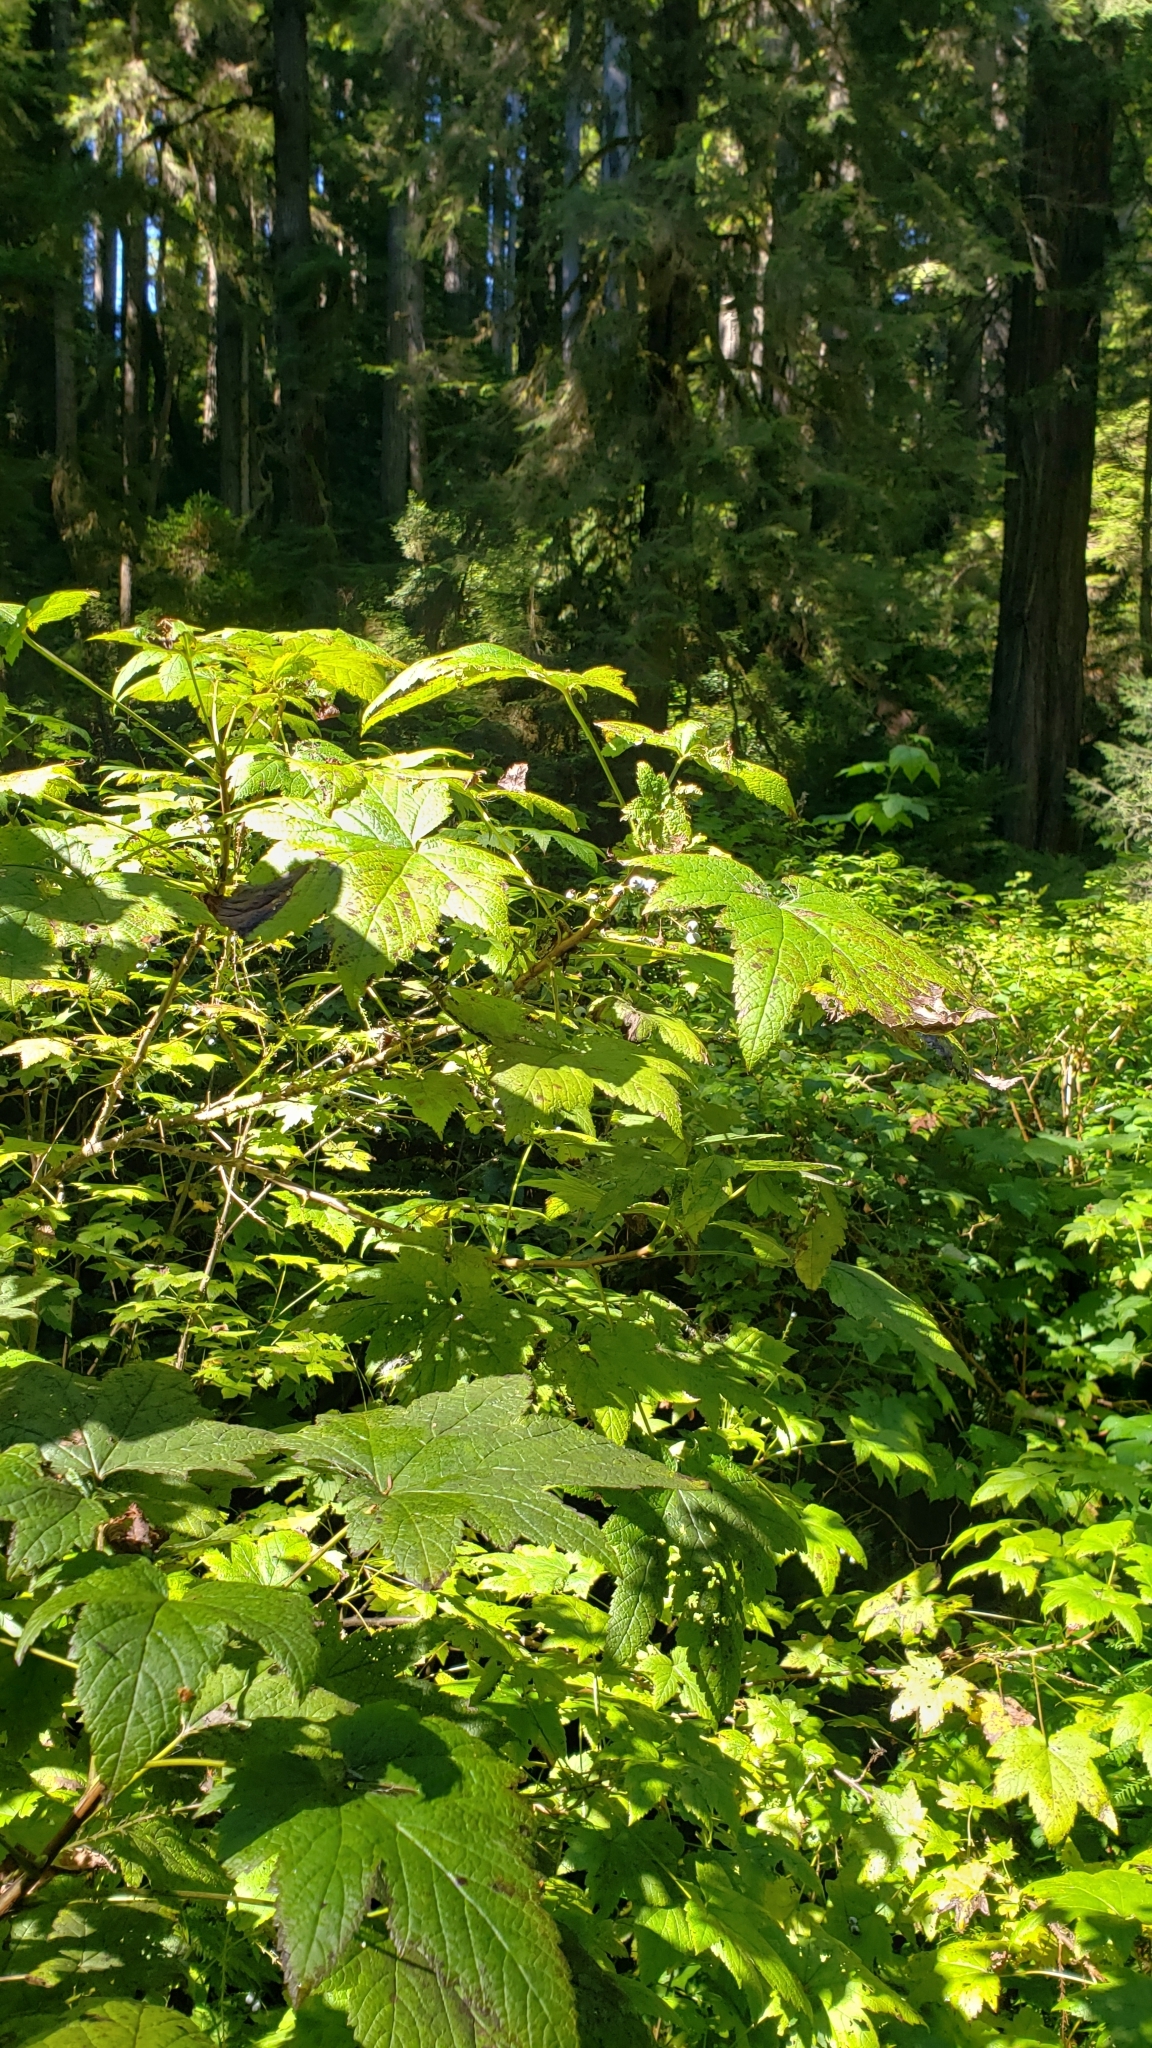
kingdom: Plantae
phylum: Tracheophyta
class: Magnoliopsida
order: Saxifragales
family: Grossulariaceae
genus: Ribes
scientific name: Ribes bracteosum
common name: California black currant
